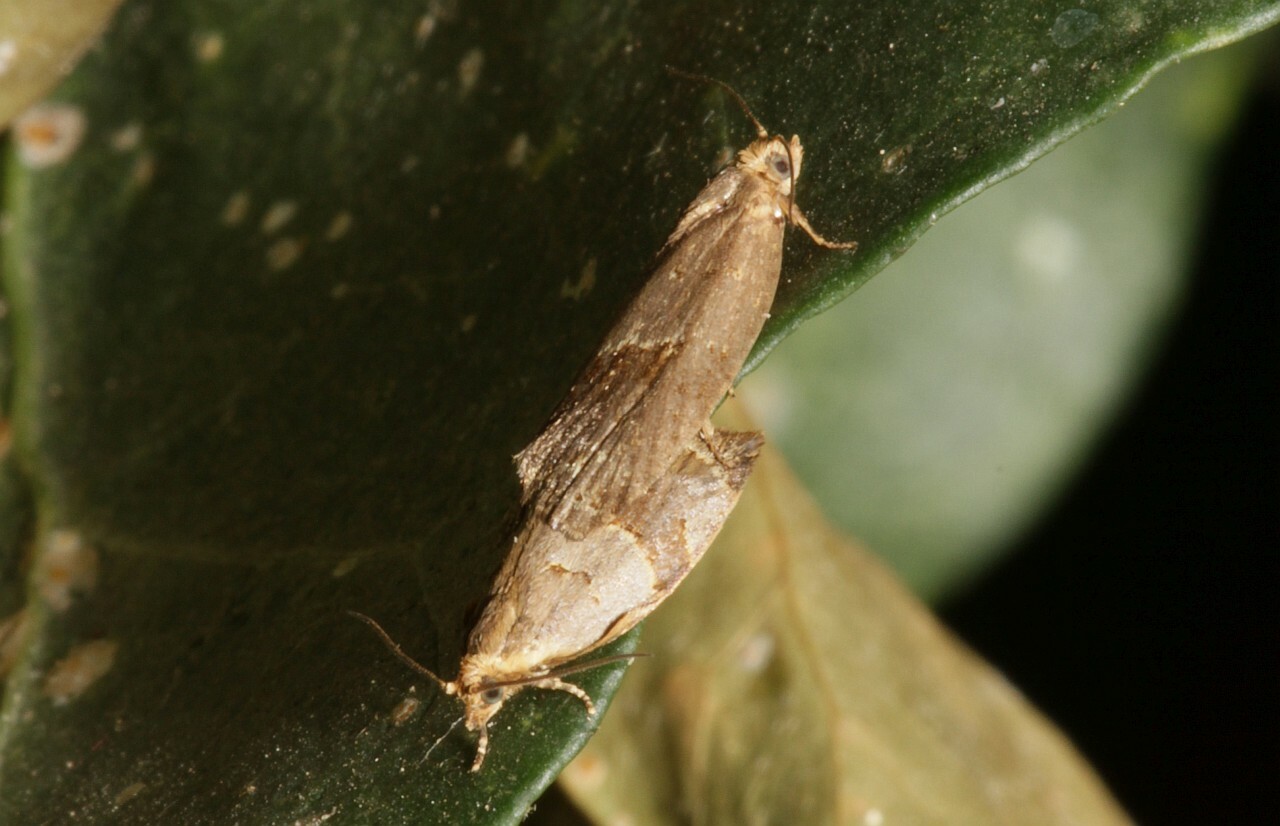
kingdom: Animalia
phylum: Arthropoda
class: Insecta
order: Lepidoptera
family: Tortricidae
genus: Clepsis
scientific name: Clepsis dumicolana
